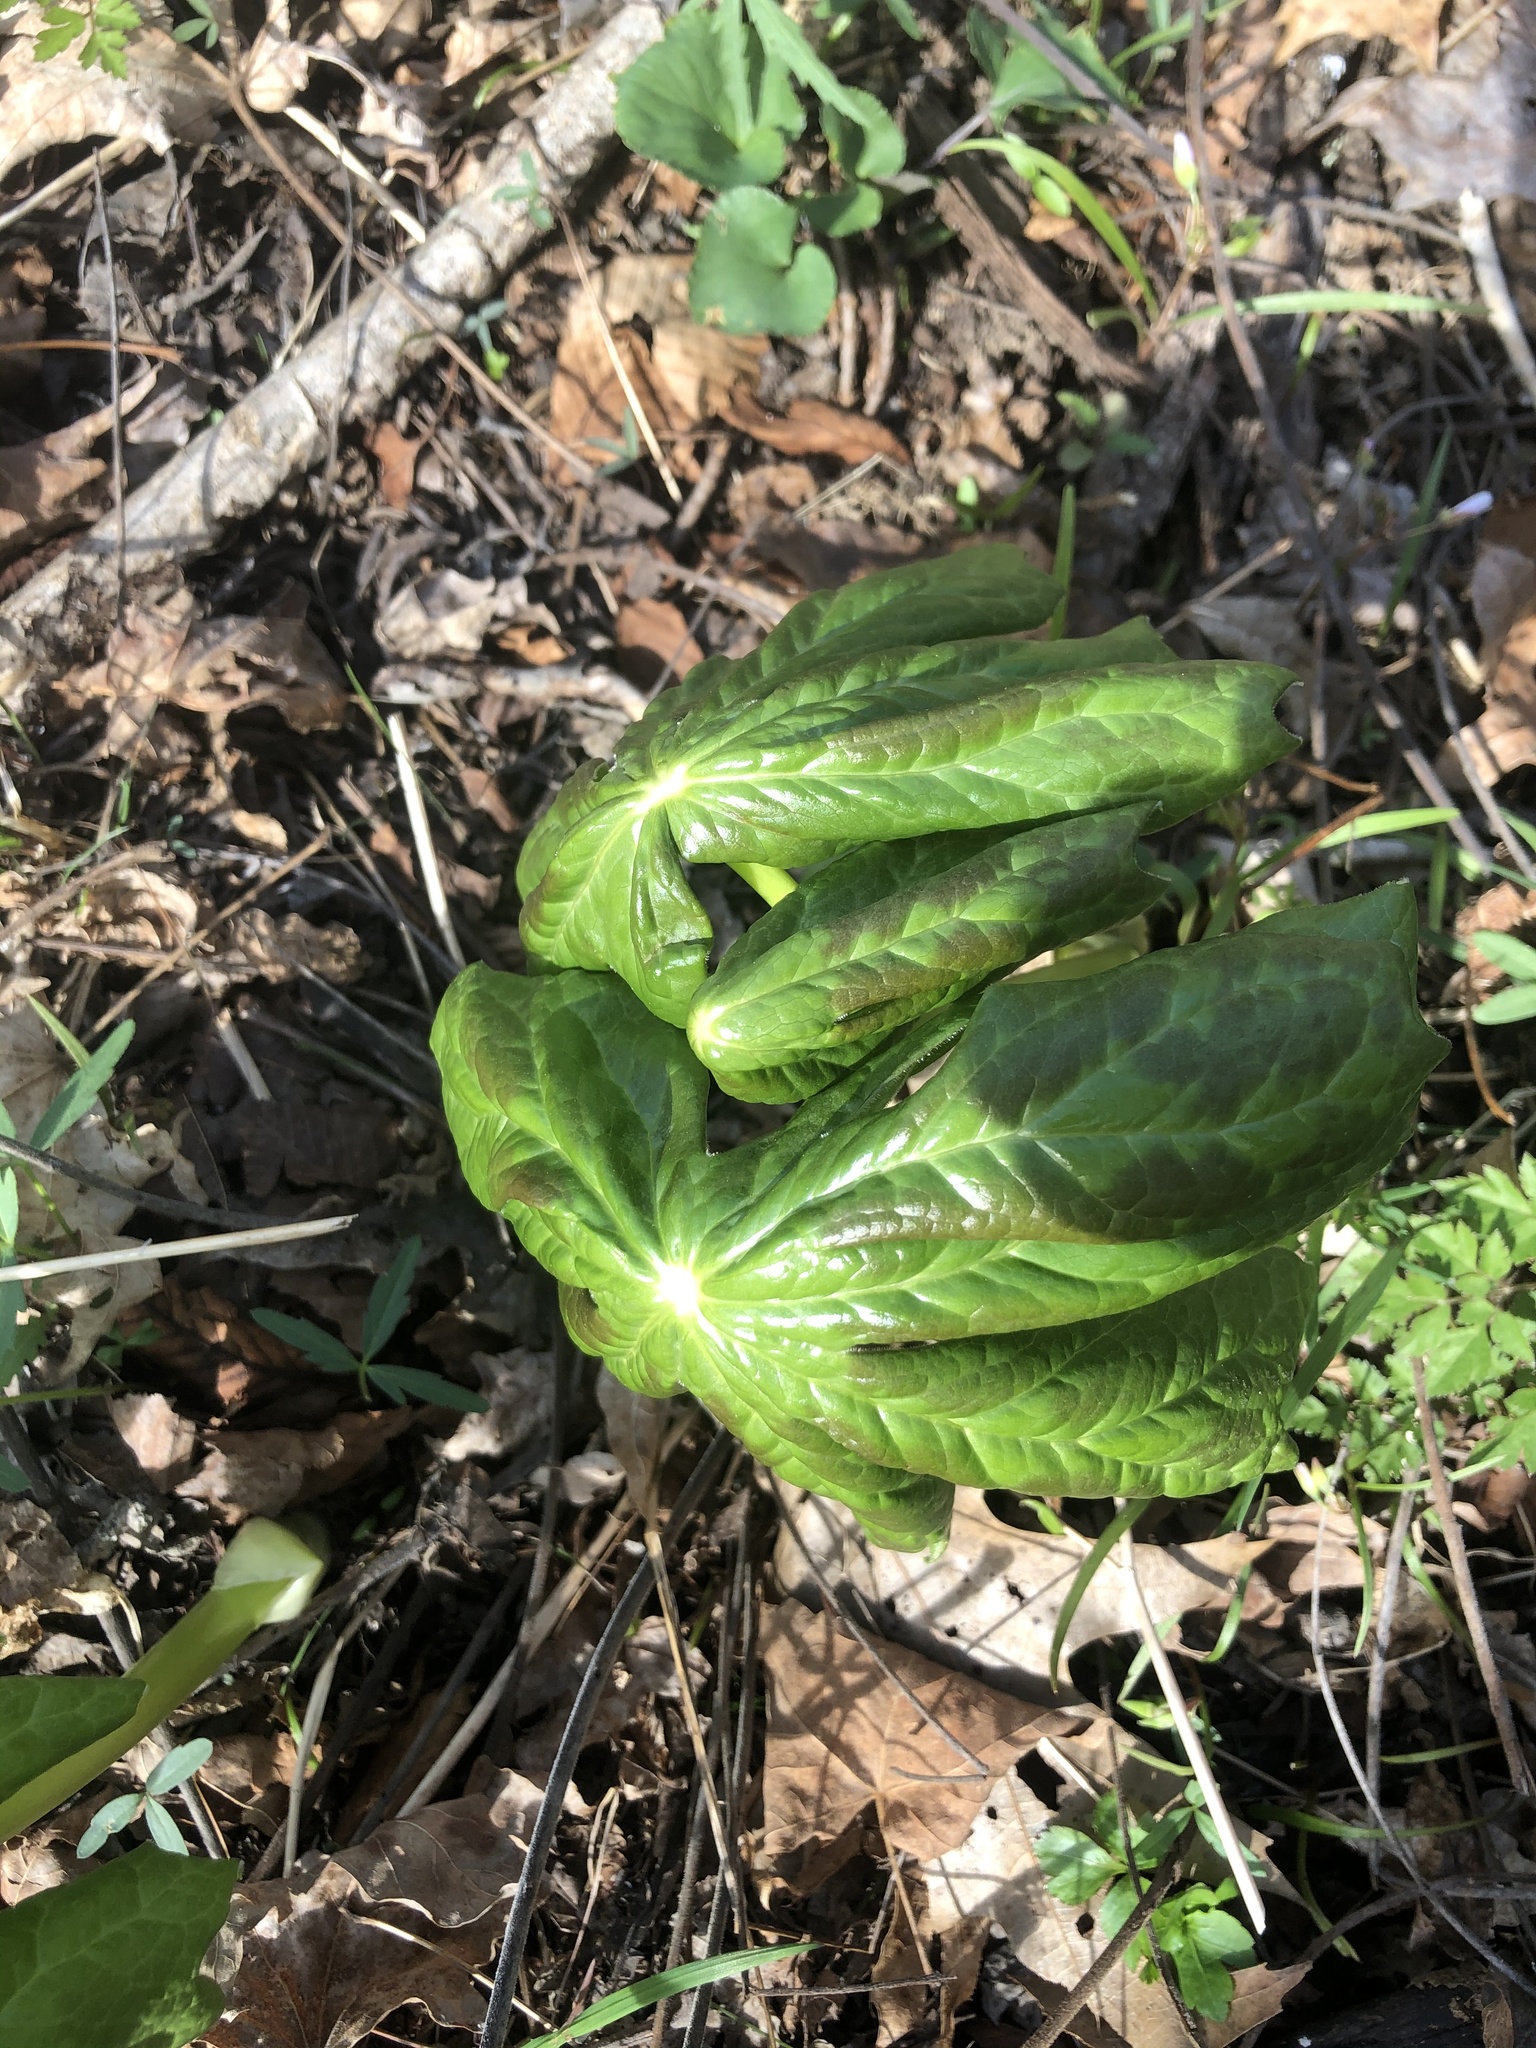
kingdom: Plantae
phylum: Tracheophyta
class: Magnoliopsida
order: Ranunculales
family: Berberidaceae
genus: Podophyllum
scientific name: Podophyllum peltatum
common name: Wild mandrake
